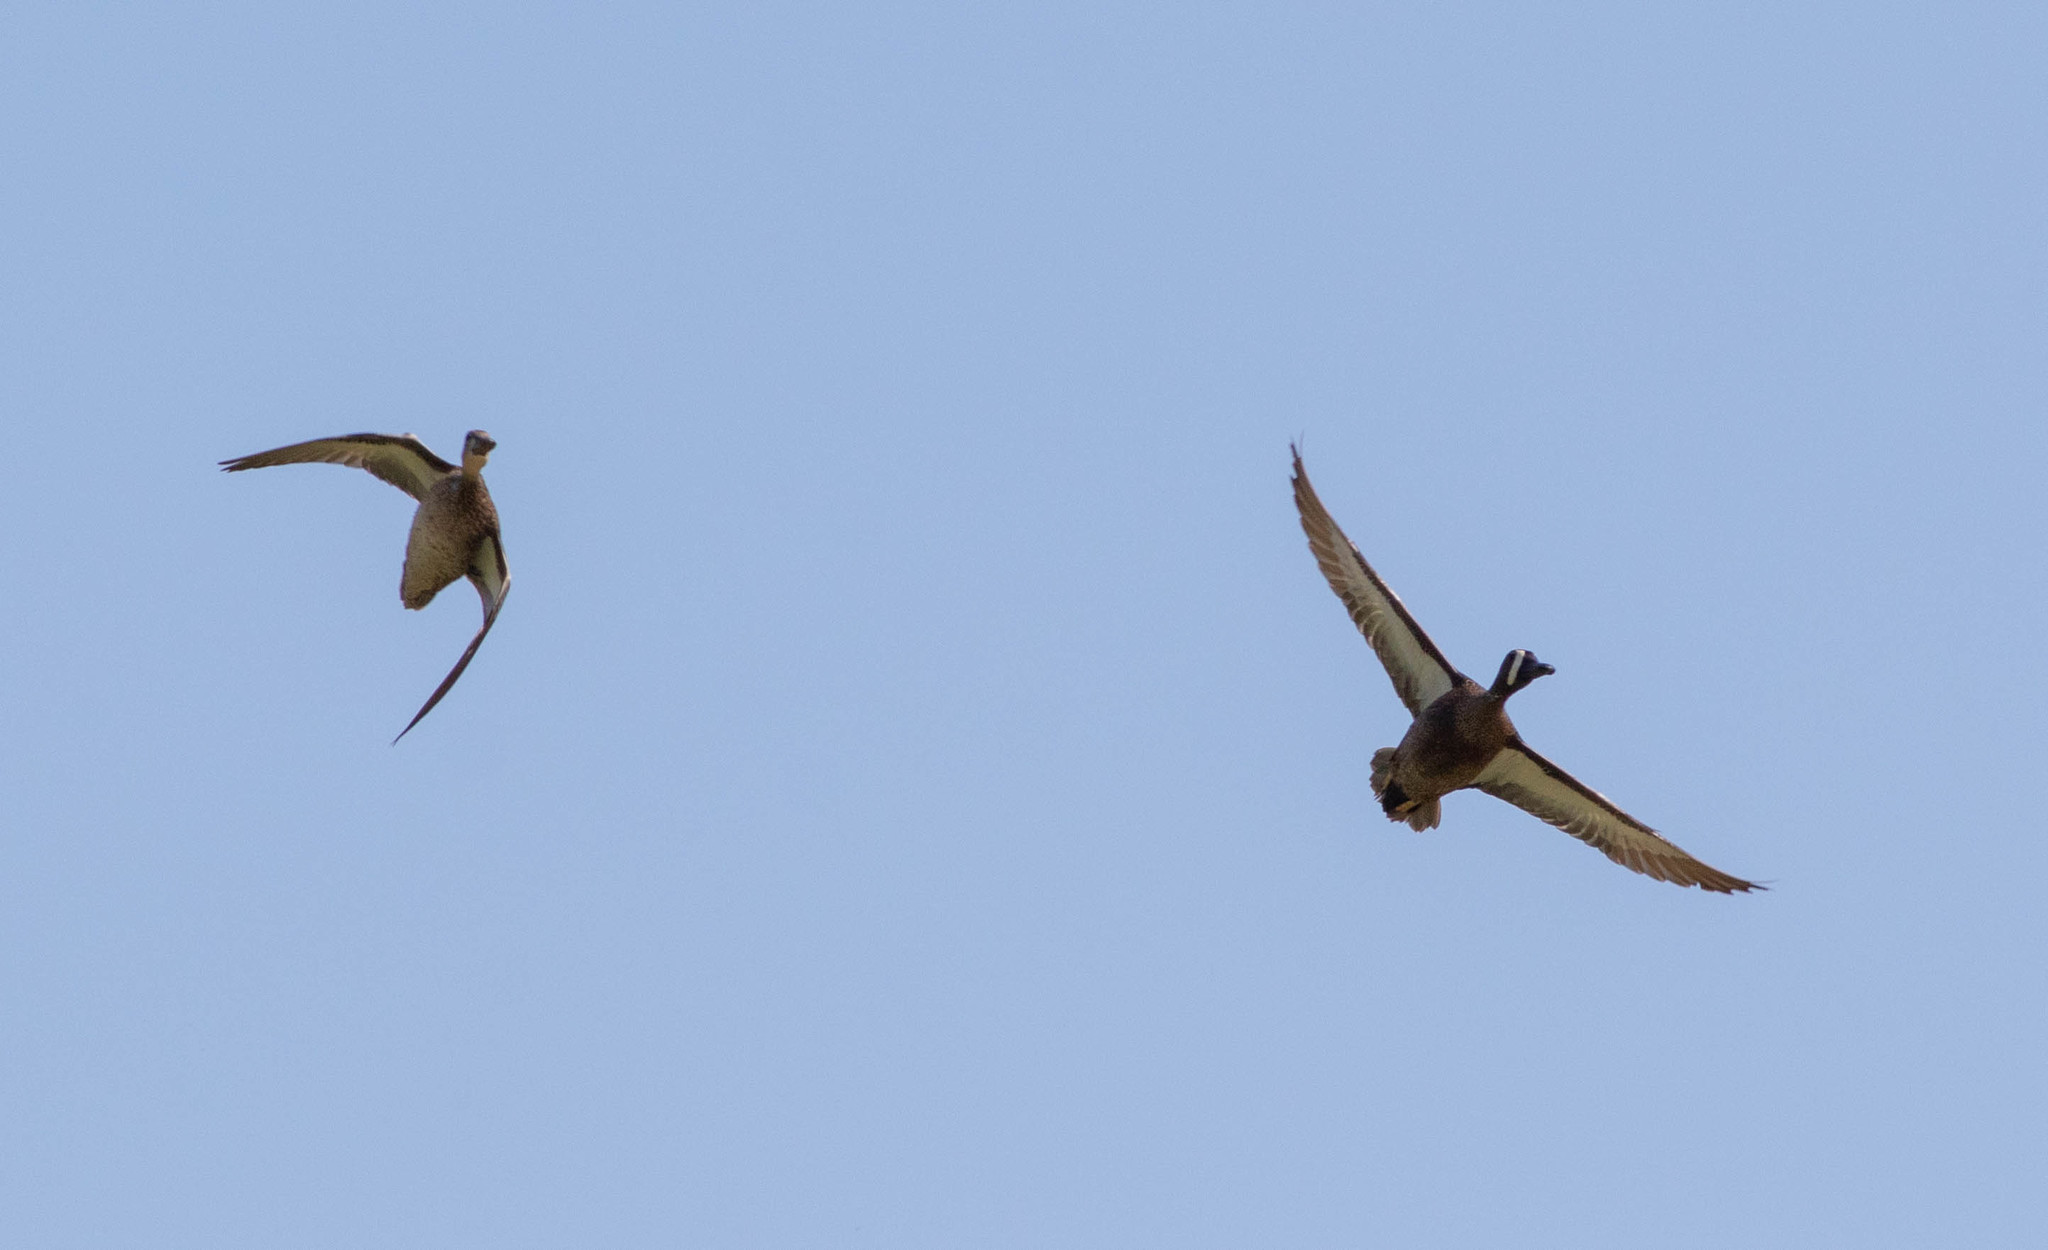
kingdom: Animalia
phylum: Chordata
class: Aves
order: Anseriformes
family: Anatidae
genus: Spatula
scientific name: Spatula discors
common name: Blue-winged teal
